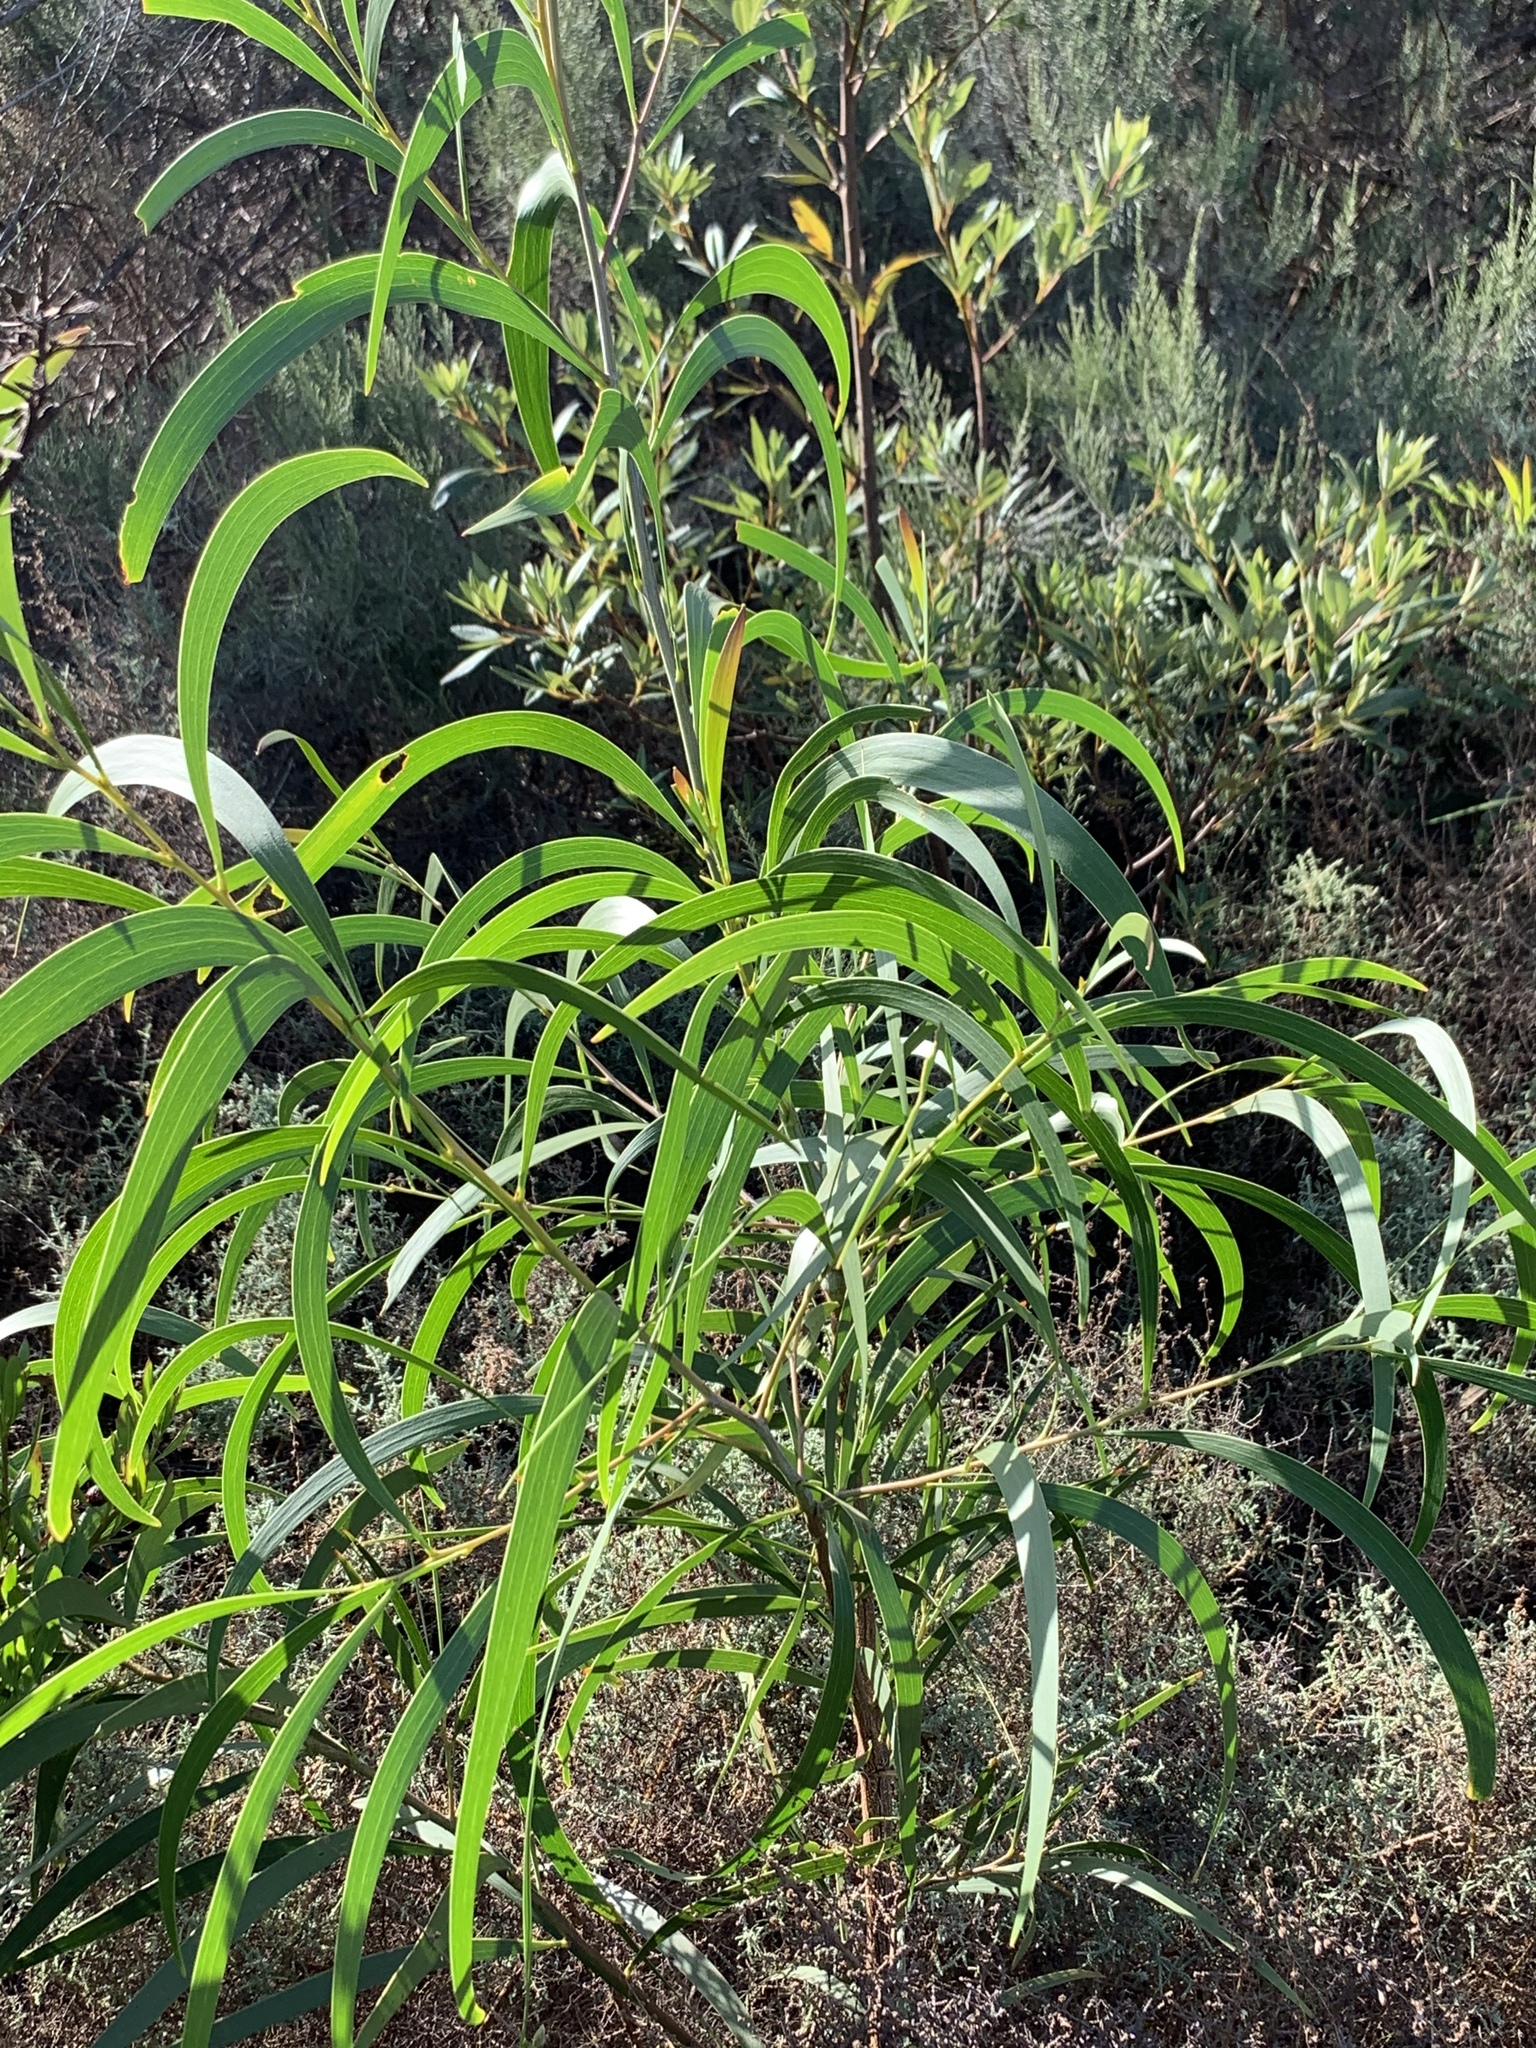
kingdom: Plantae
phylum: Tracheophyta
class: Magnoliopsida
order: Fabales
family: Fabaceae
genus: Acacia
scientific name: Acacia implexa
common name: Black wattle
